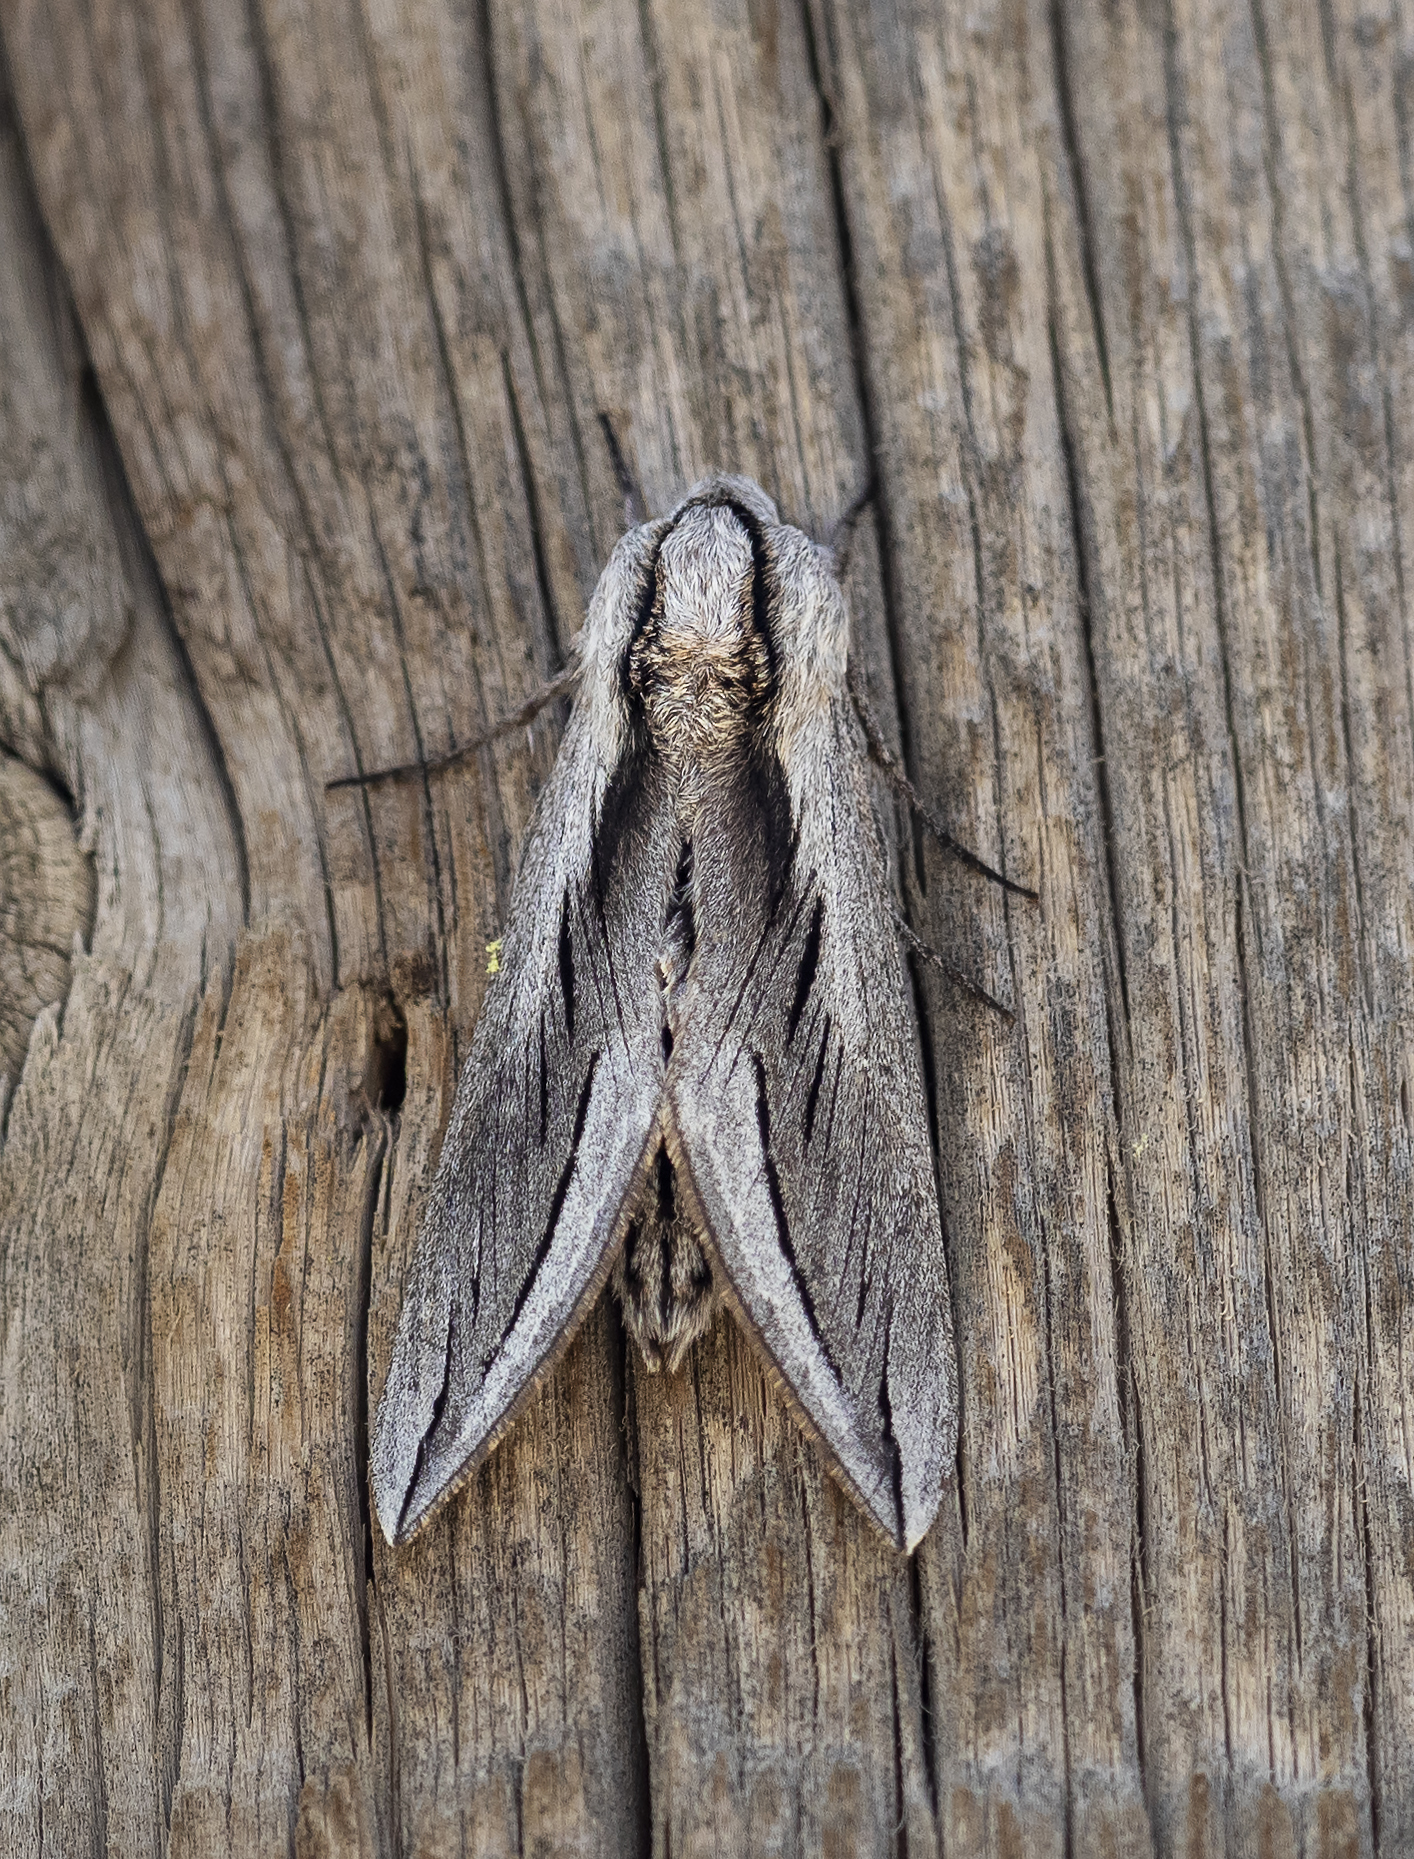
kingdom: Animalia
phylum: Arthropoda
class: Insecta
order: Lepidoptera
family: Sphingidae
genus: Sphinx
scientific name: Sphinx vashti
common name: Snowberry sphinx
